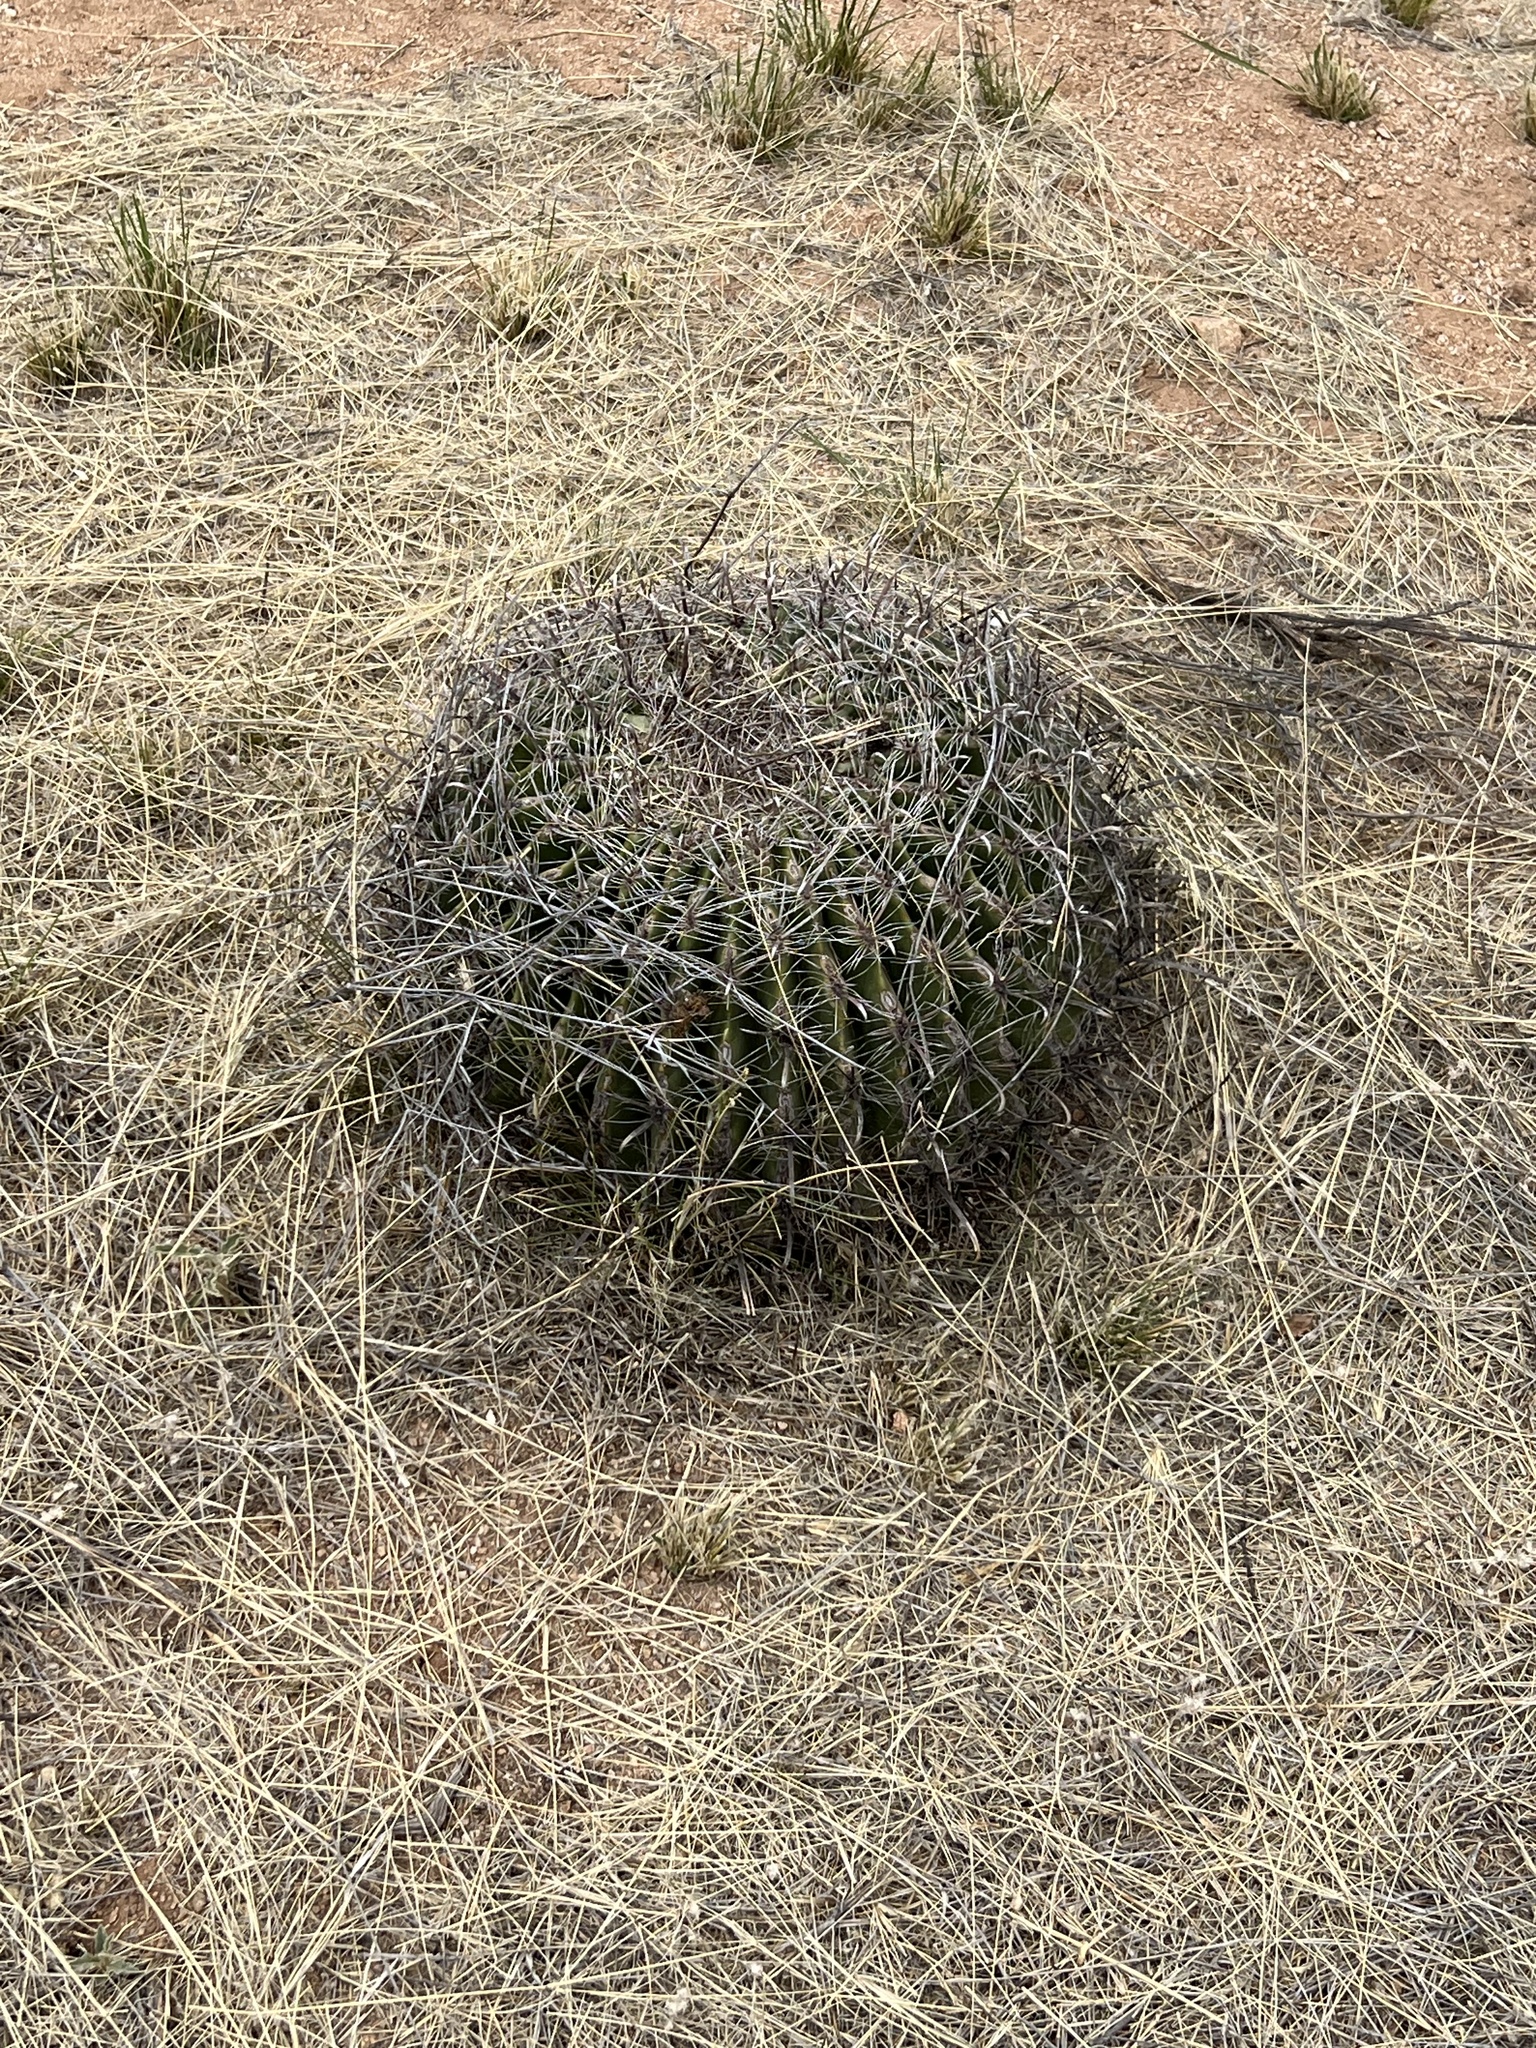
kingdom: Plantae
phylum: Tracheophyta
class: Magnoliopsida
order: Caryophyllales
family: Cactaceae
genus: Ferocactus
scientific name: Ferocactus wislizeni
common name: Candy barrel cactus
